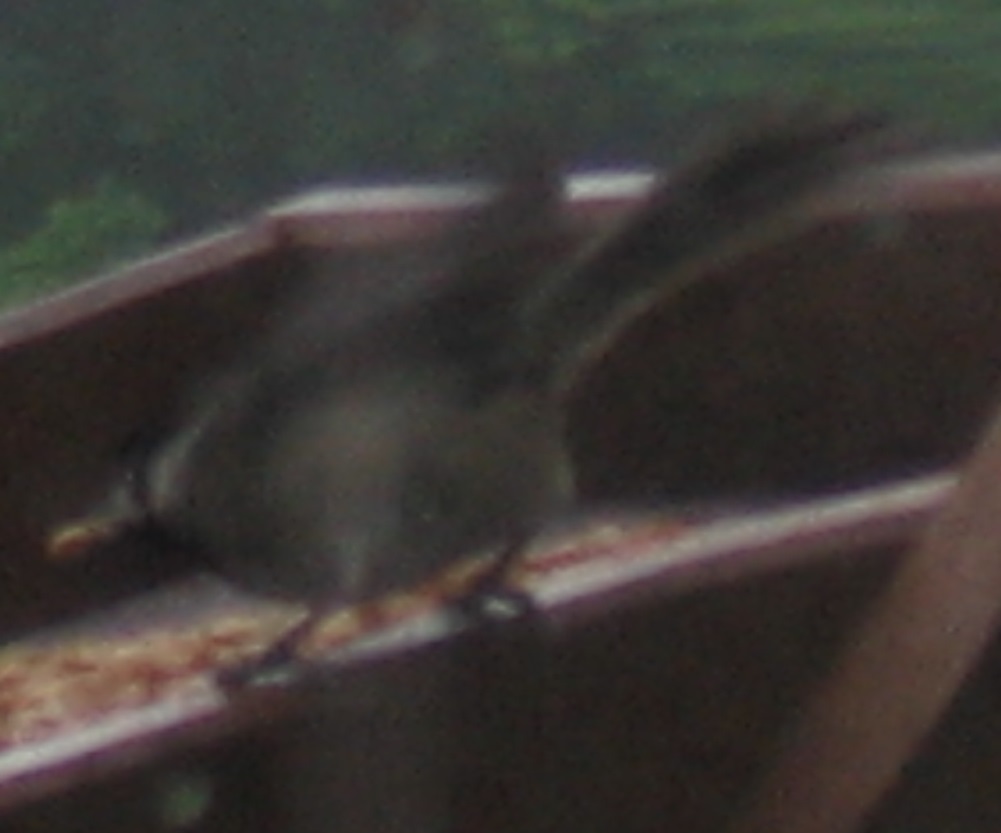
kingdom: Animalia
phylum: Chordata
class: Aves
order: Passeriformes
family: Paridae
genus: Poecile
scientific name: Poecile carolinensis
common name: Carolina chickadee
